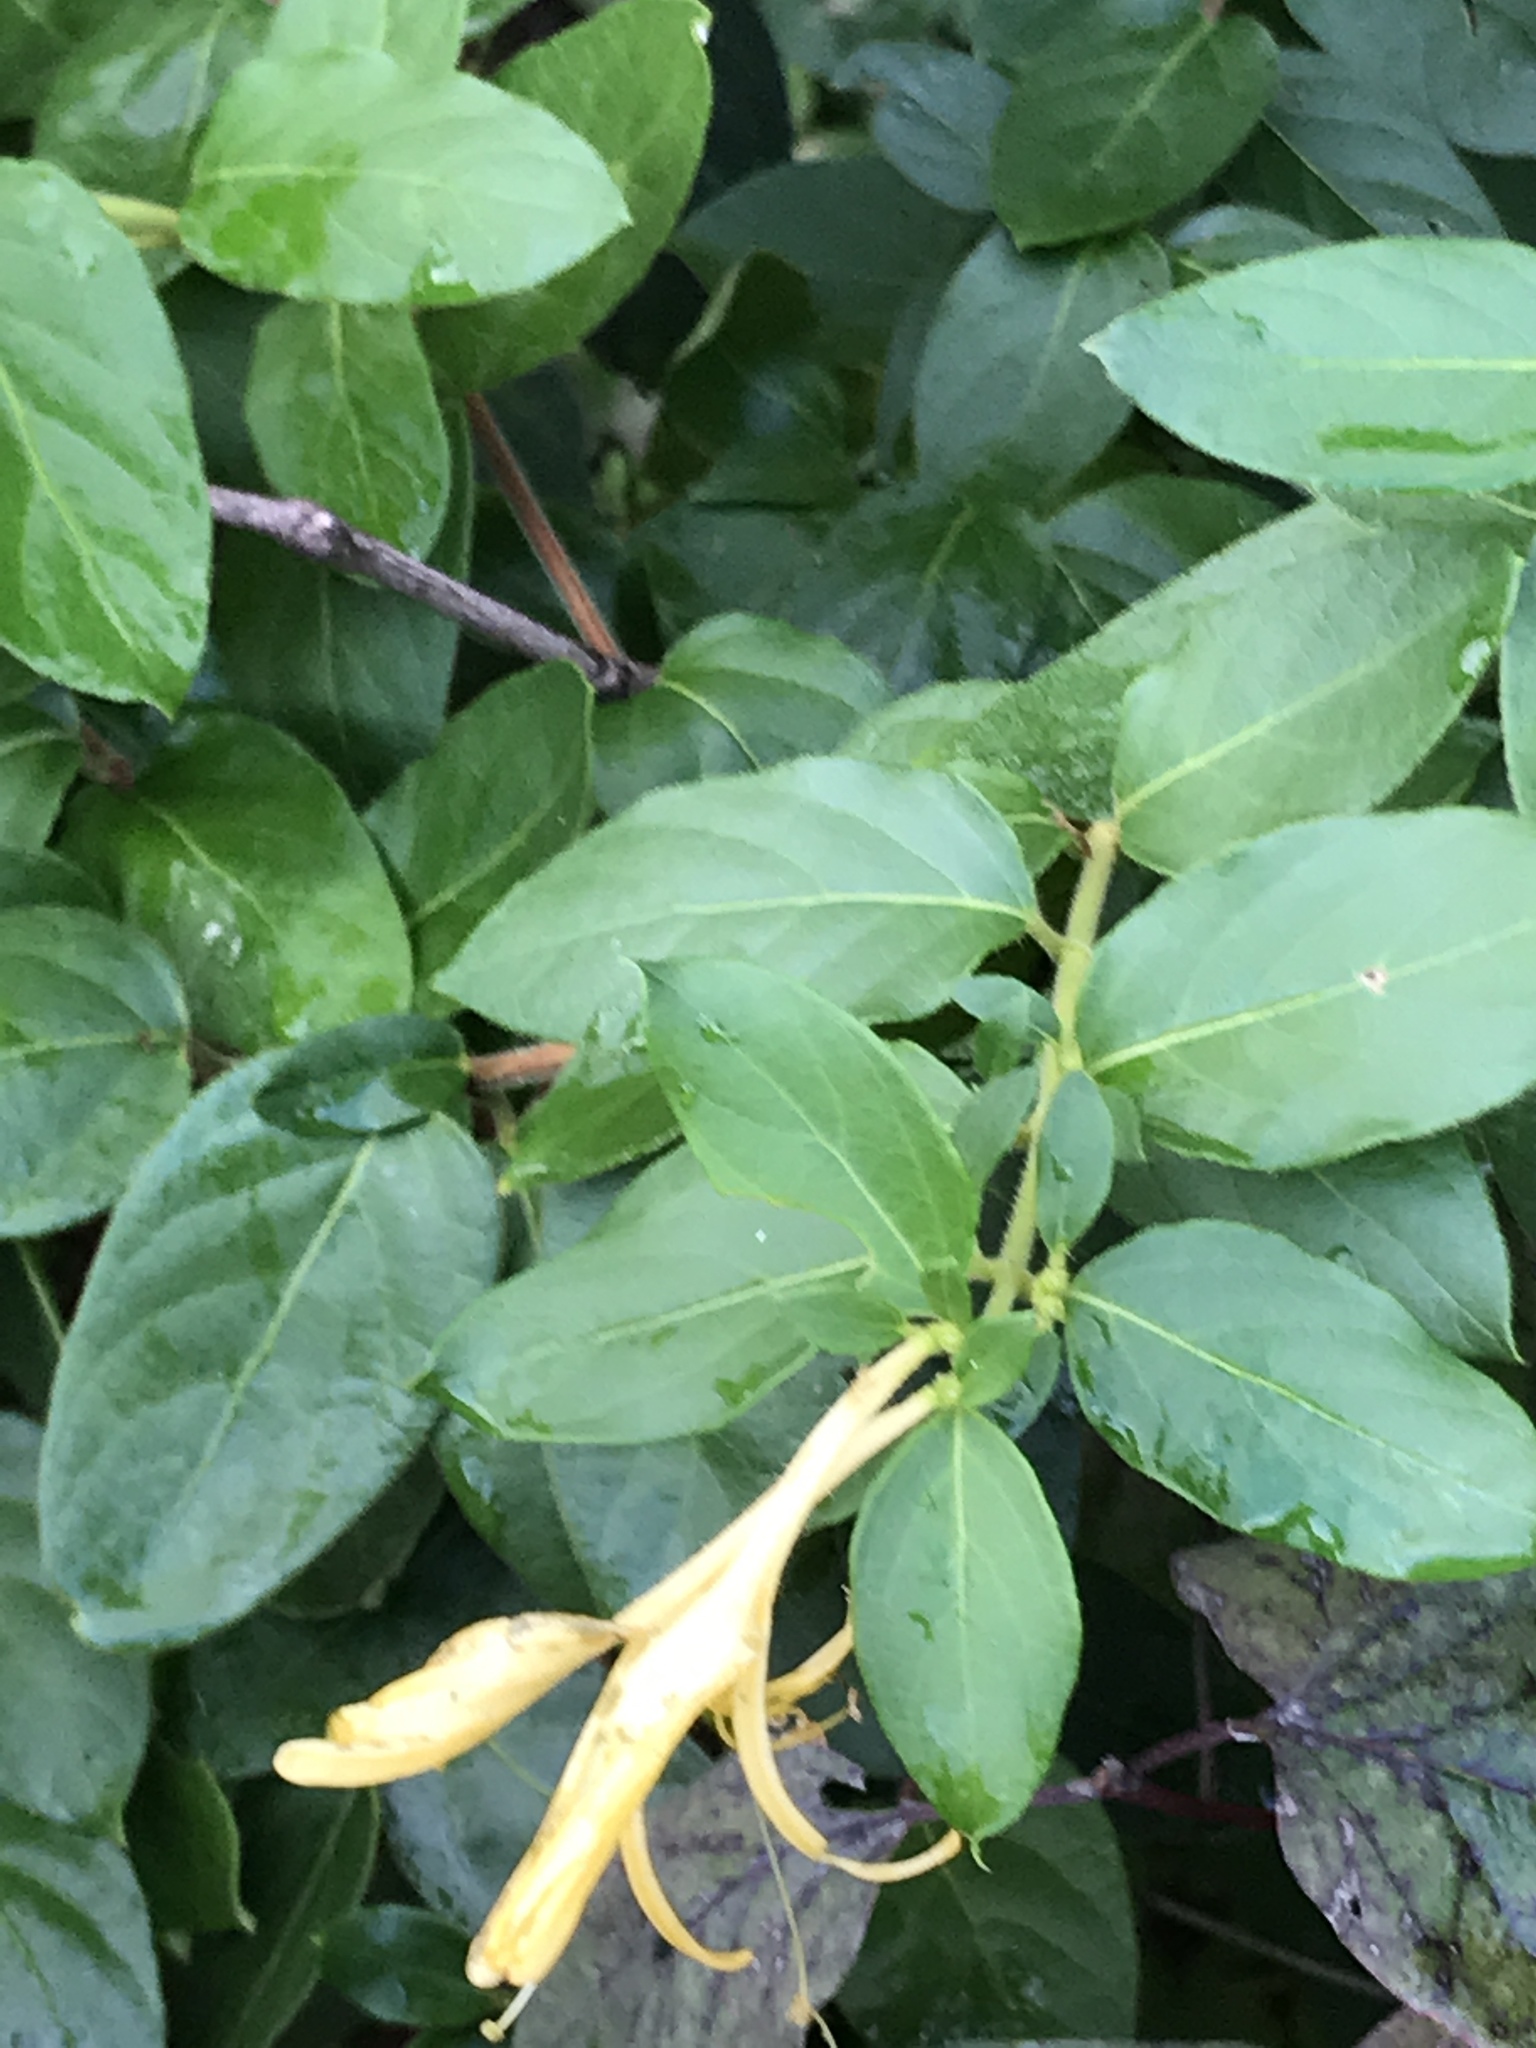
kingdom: Plantae
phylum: Tracheophyta
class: Magnoliopsida
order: Dipsacales
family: Caprifoliaceae
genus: Lonicera
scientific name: Lonicera japonica
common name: Japanese honeysuckle
